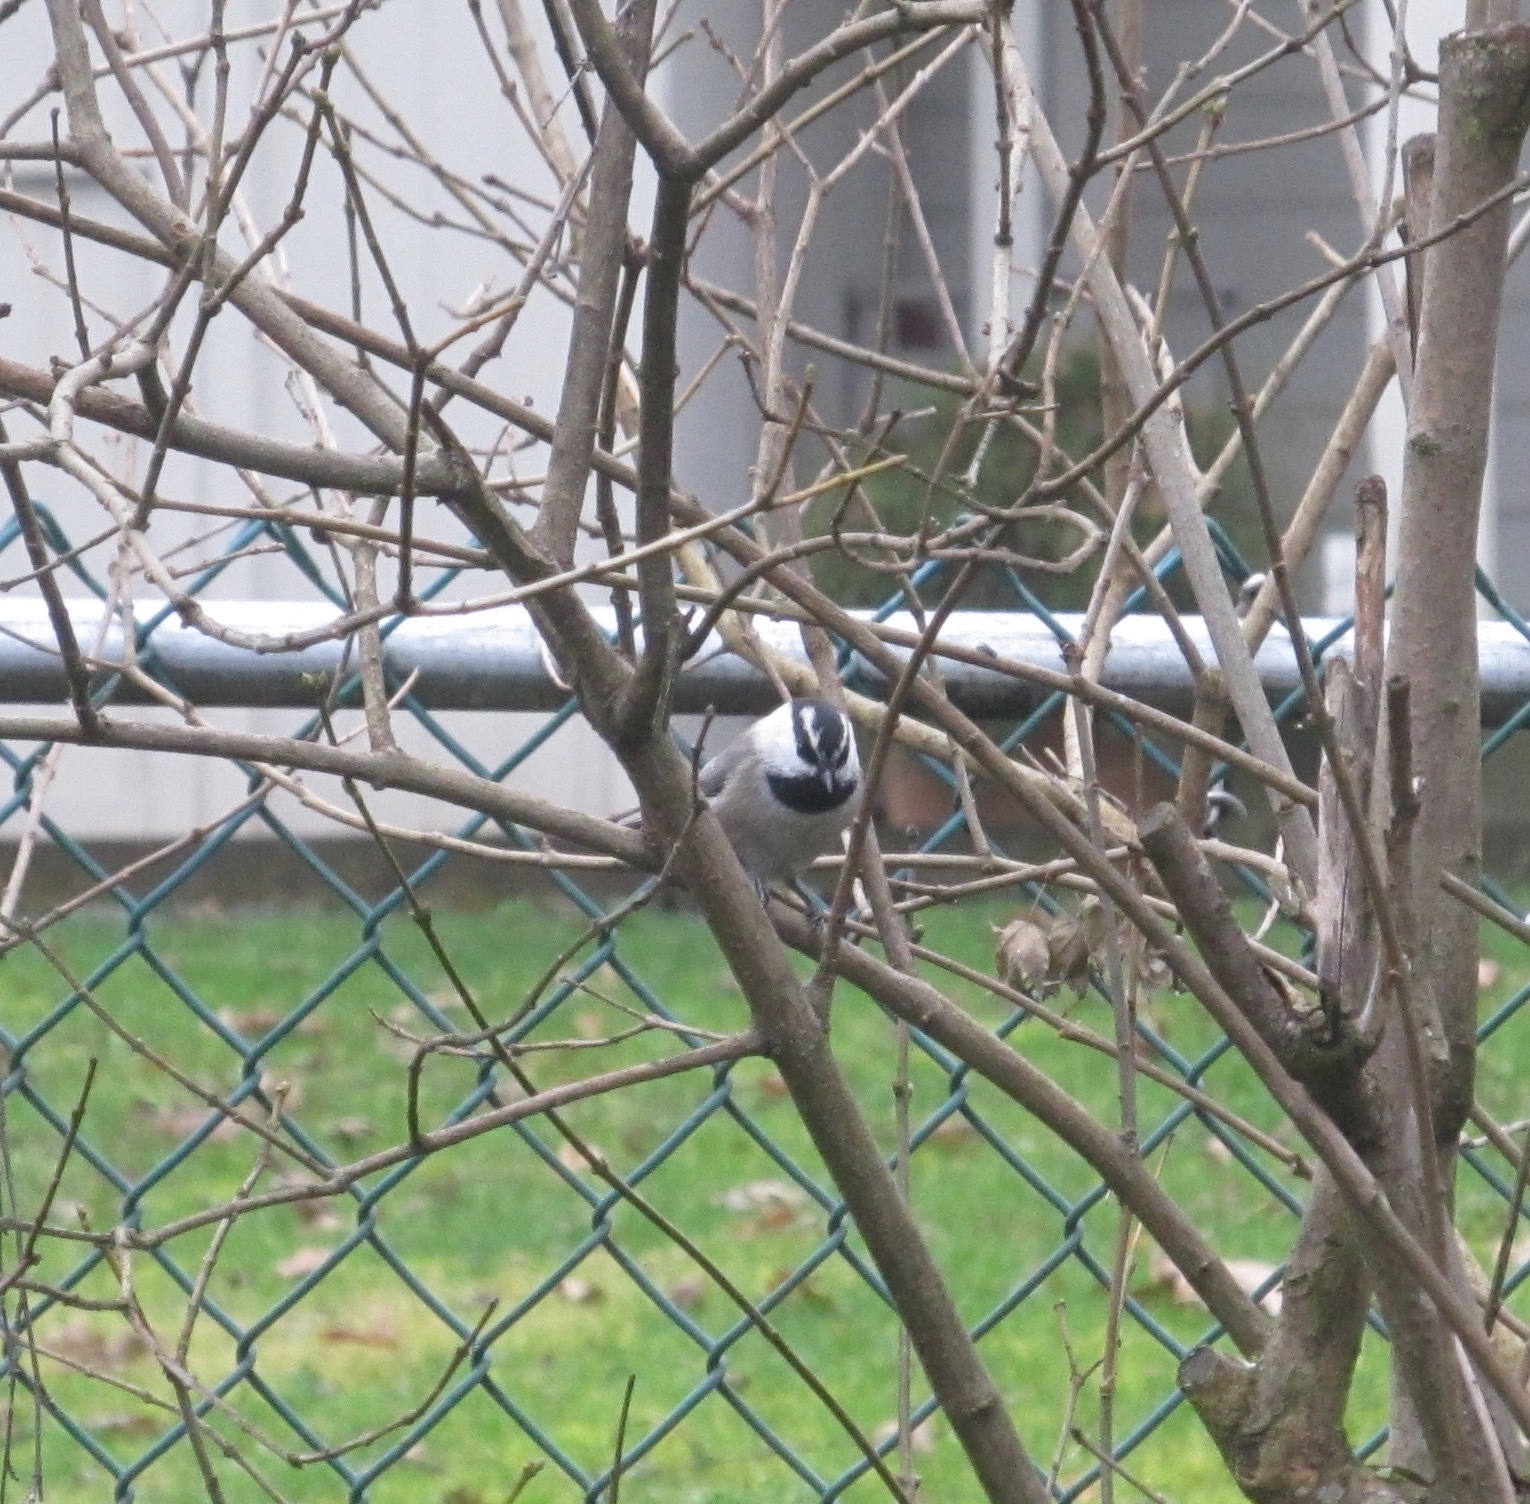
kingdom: Animalia
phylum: Chordata
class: Aves
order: Passeriformes
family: Paridae
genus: Poecile
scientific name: Poecile gambeli
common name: Mountain chickadee
